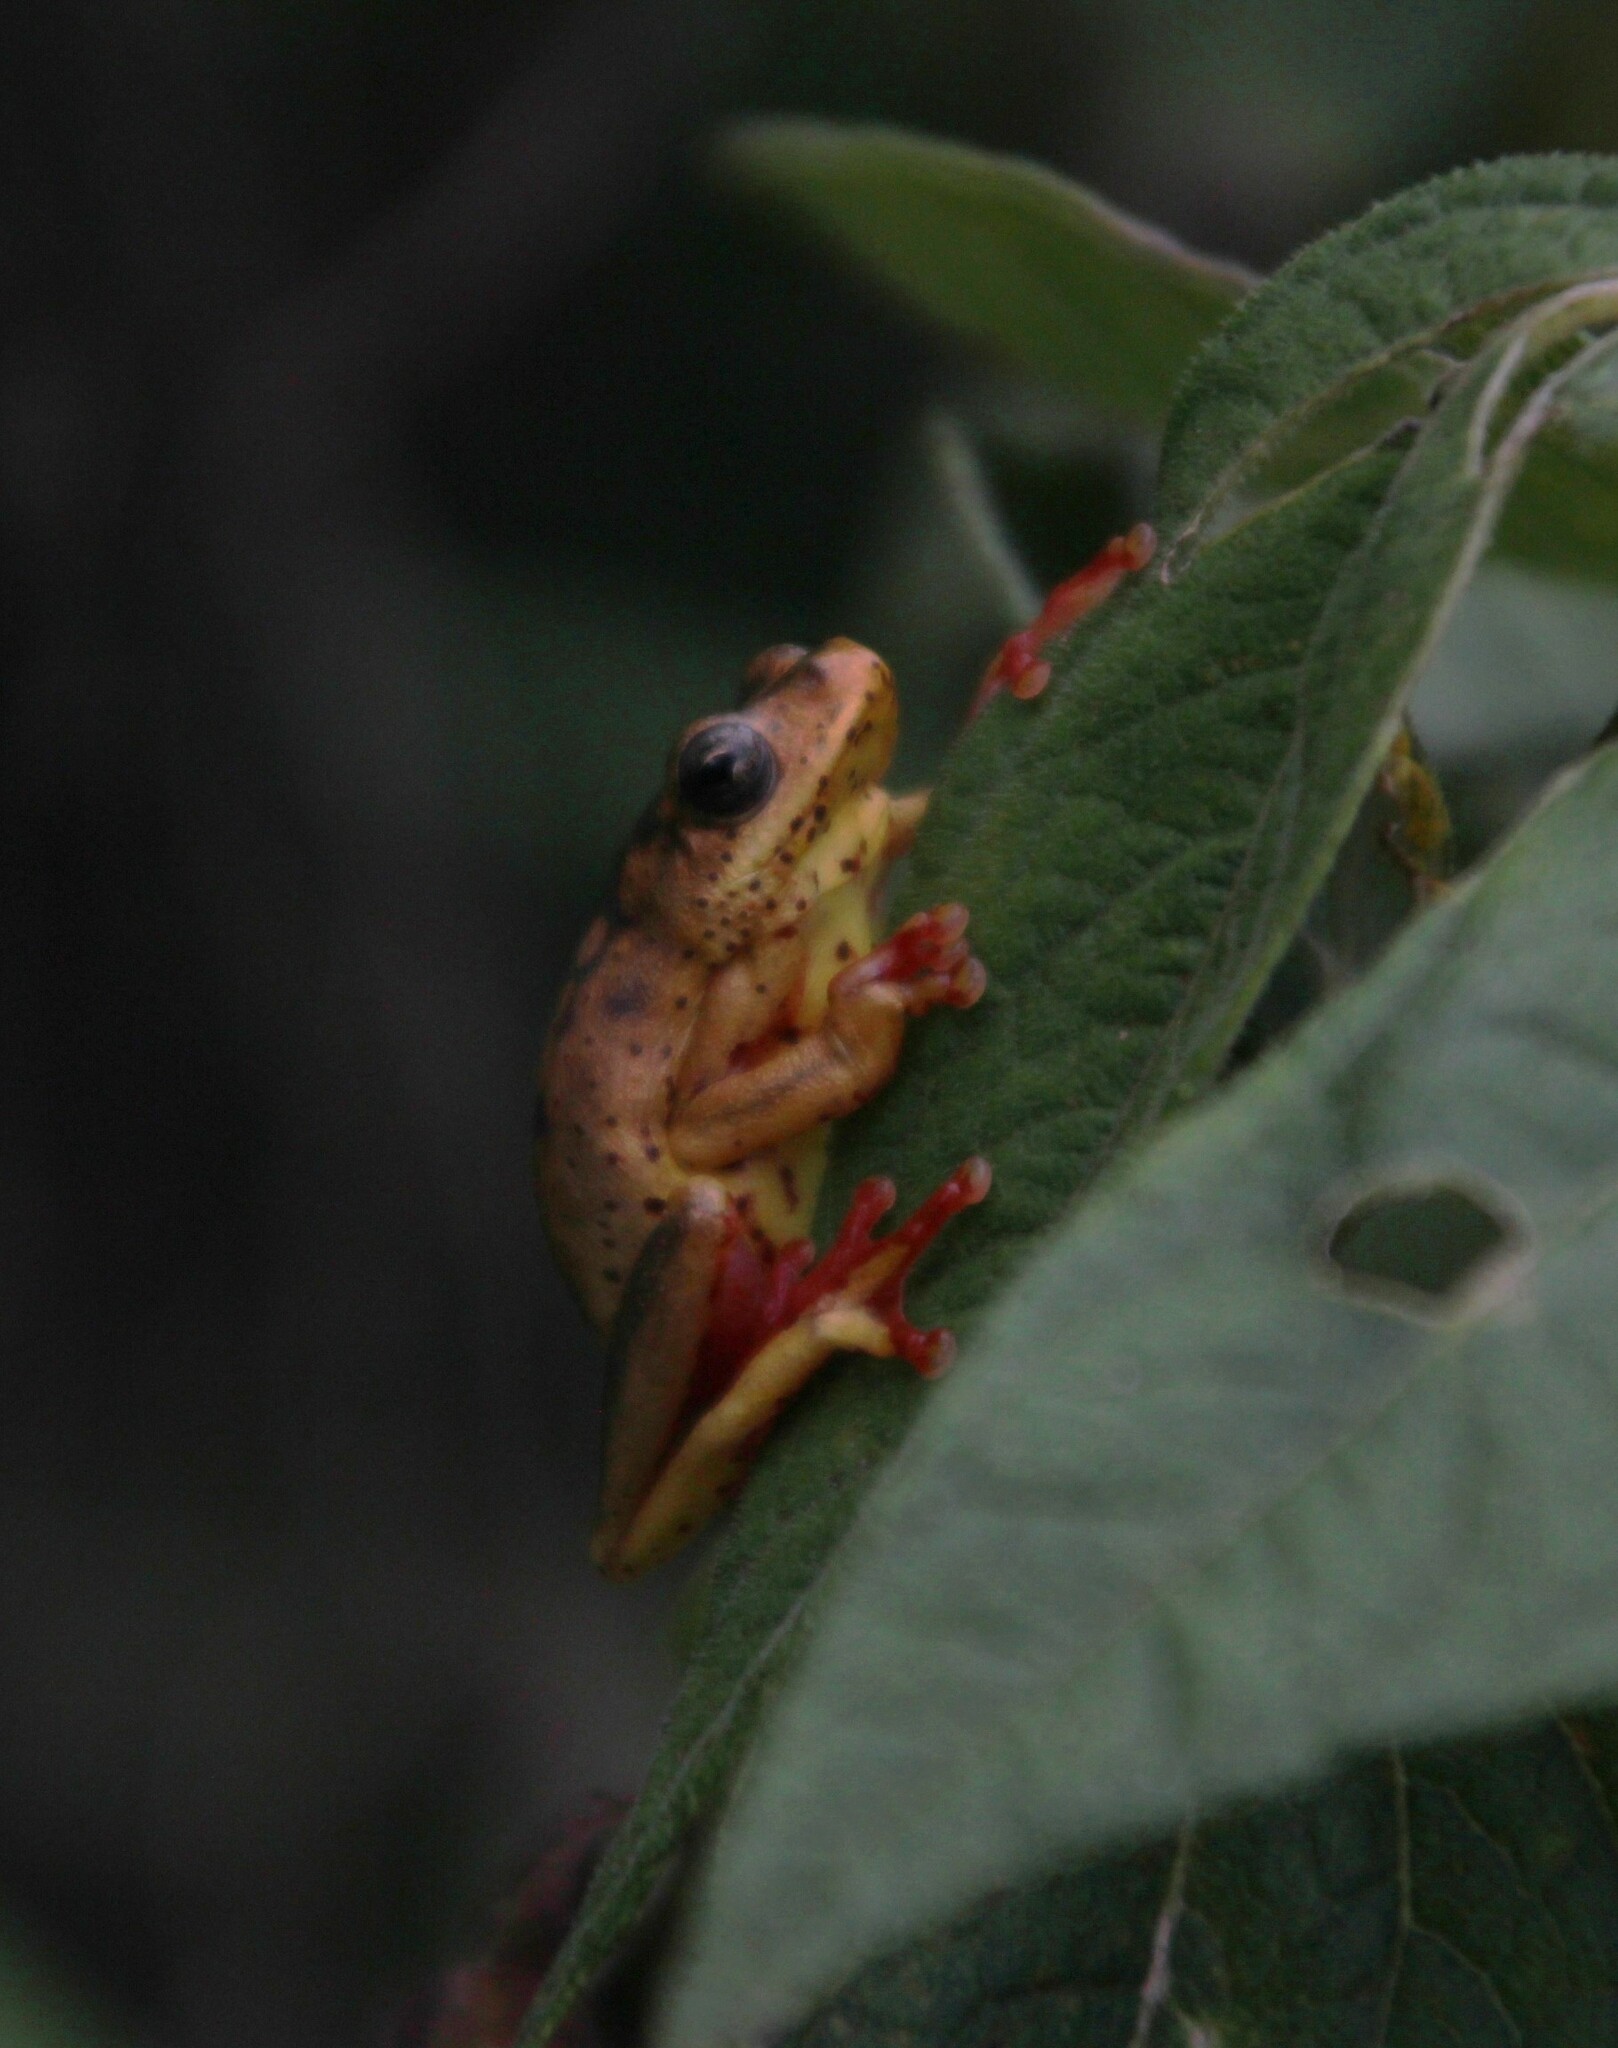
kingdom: Animalia
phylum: Chordata
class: Amphibia
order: Anura
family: Hyperoliidae
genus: Hyperolius
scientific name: Hyperolius viridiflavus
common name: Common reed frog
